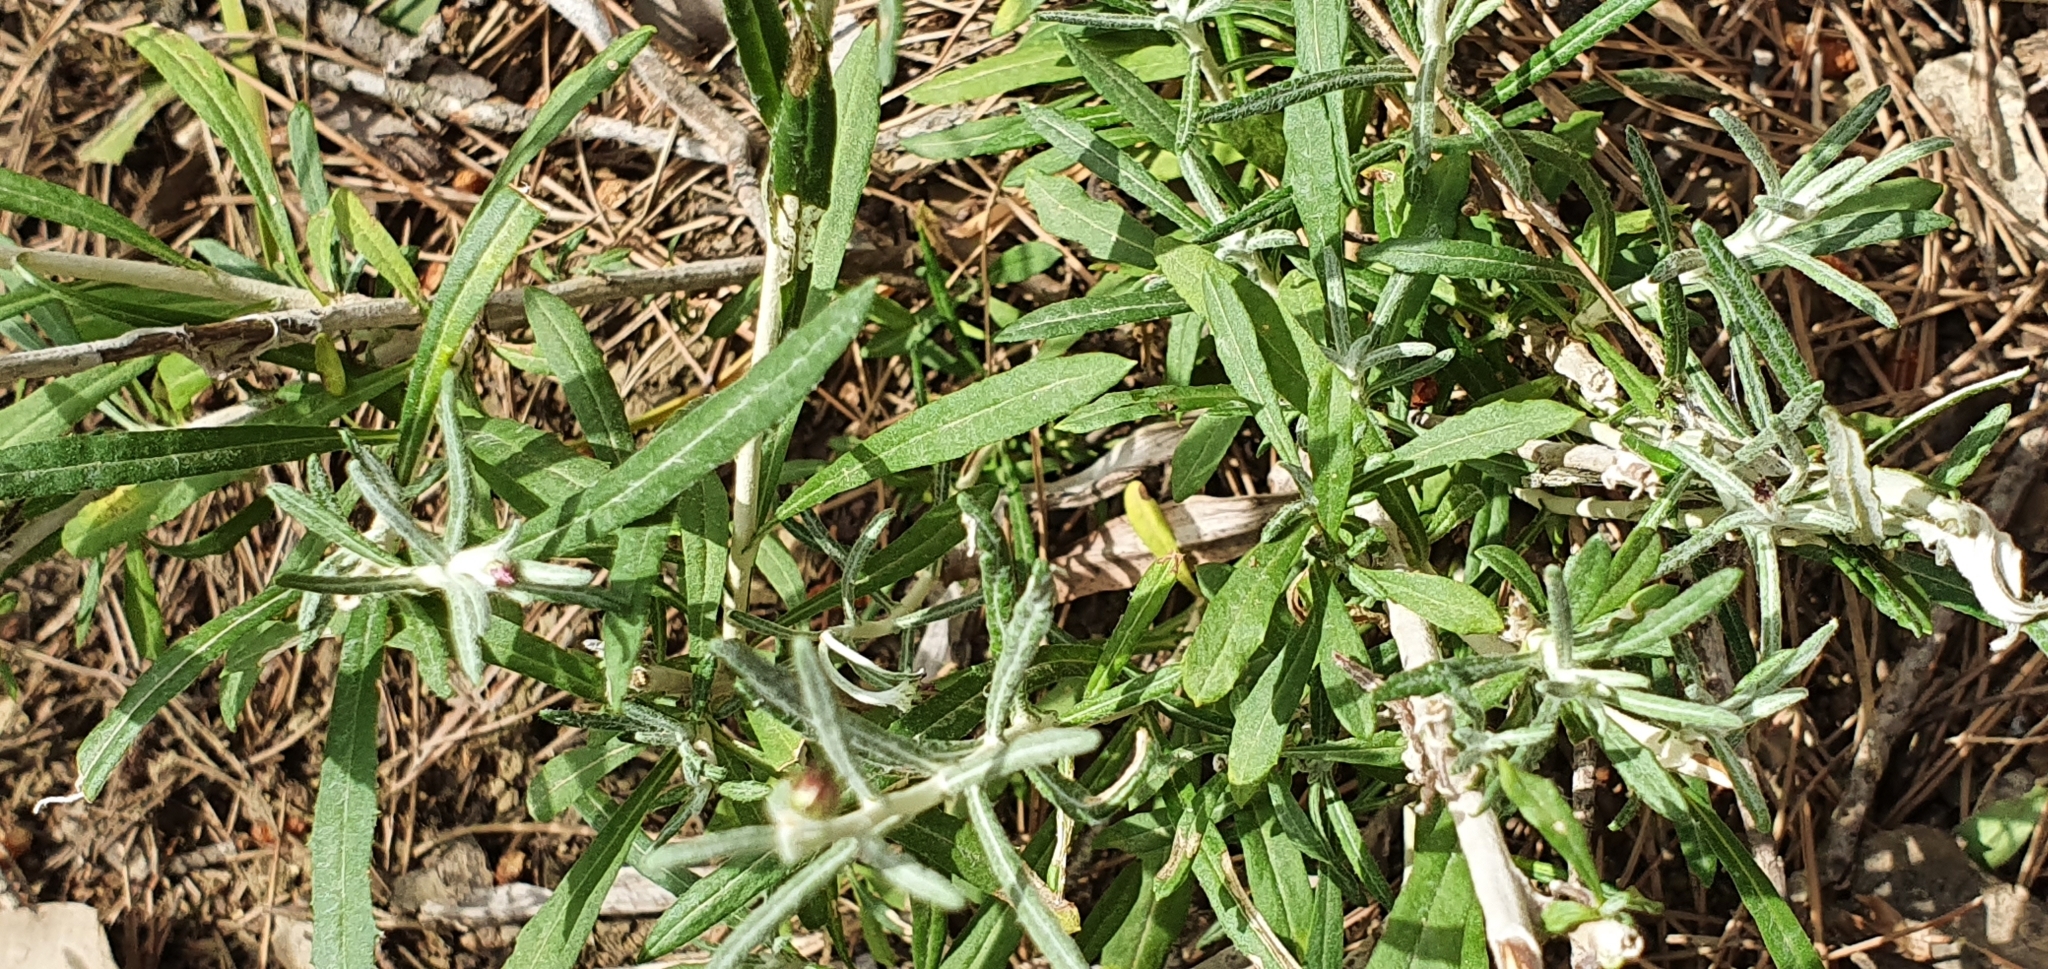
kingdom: Plantae
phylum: Tracheophyta
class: Magnoliopsida
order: Asterales
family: Asteraceae
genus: Phagnalon
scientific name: Phagnalon saxatile
